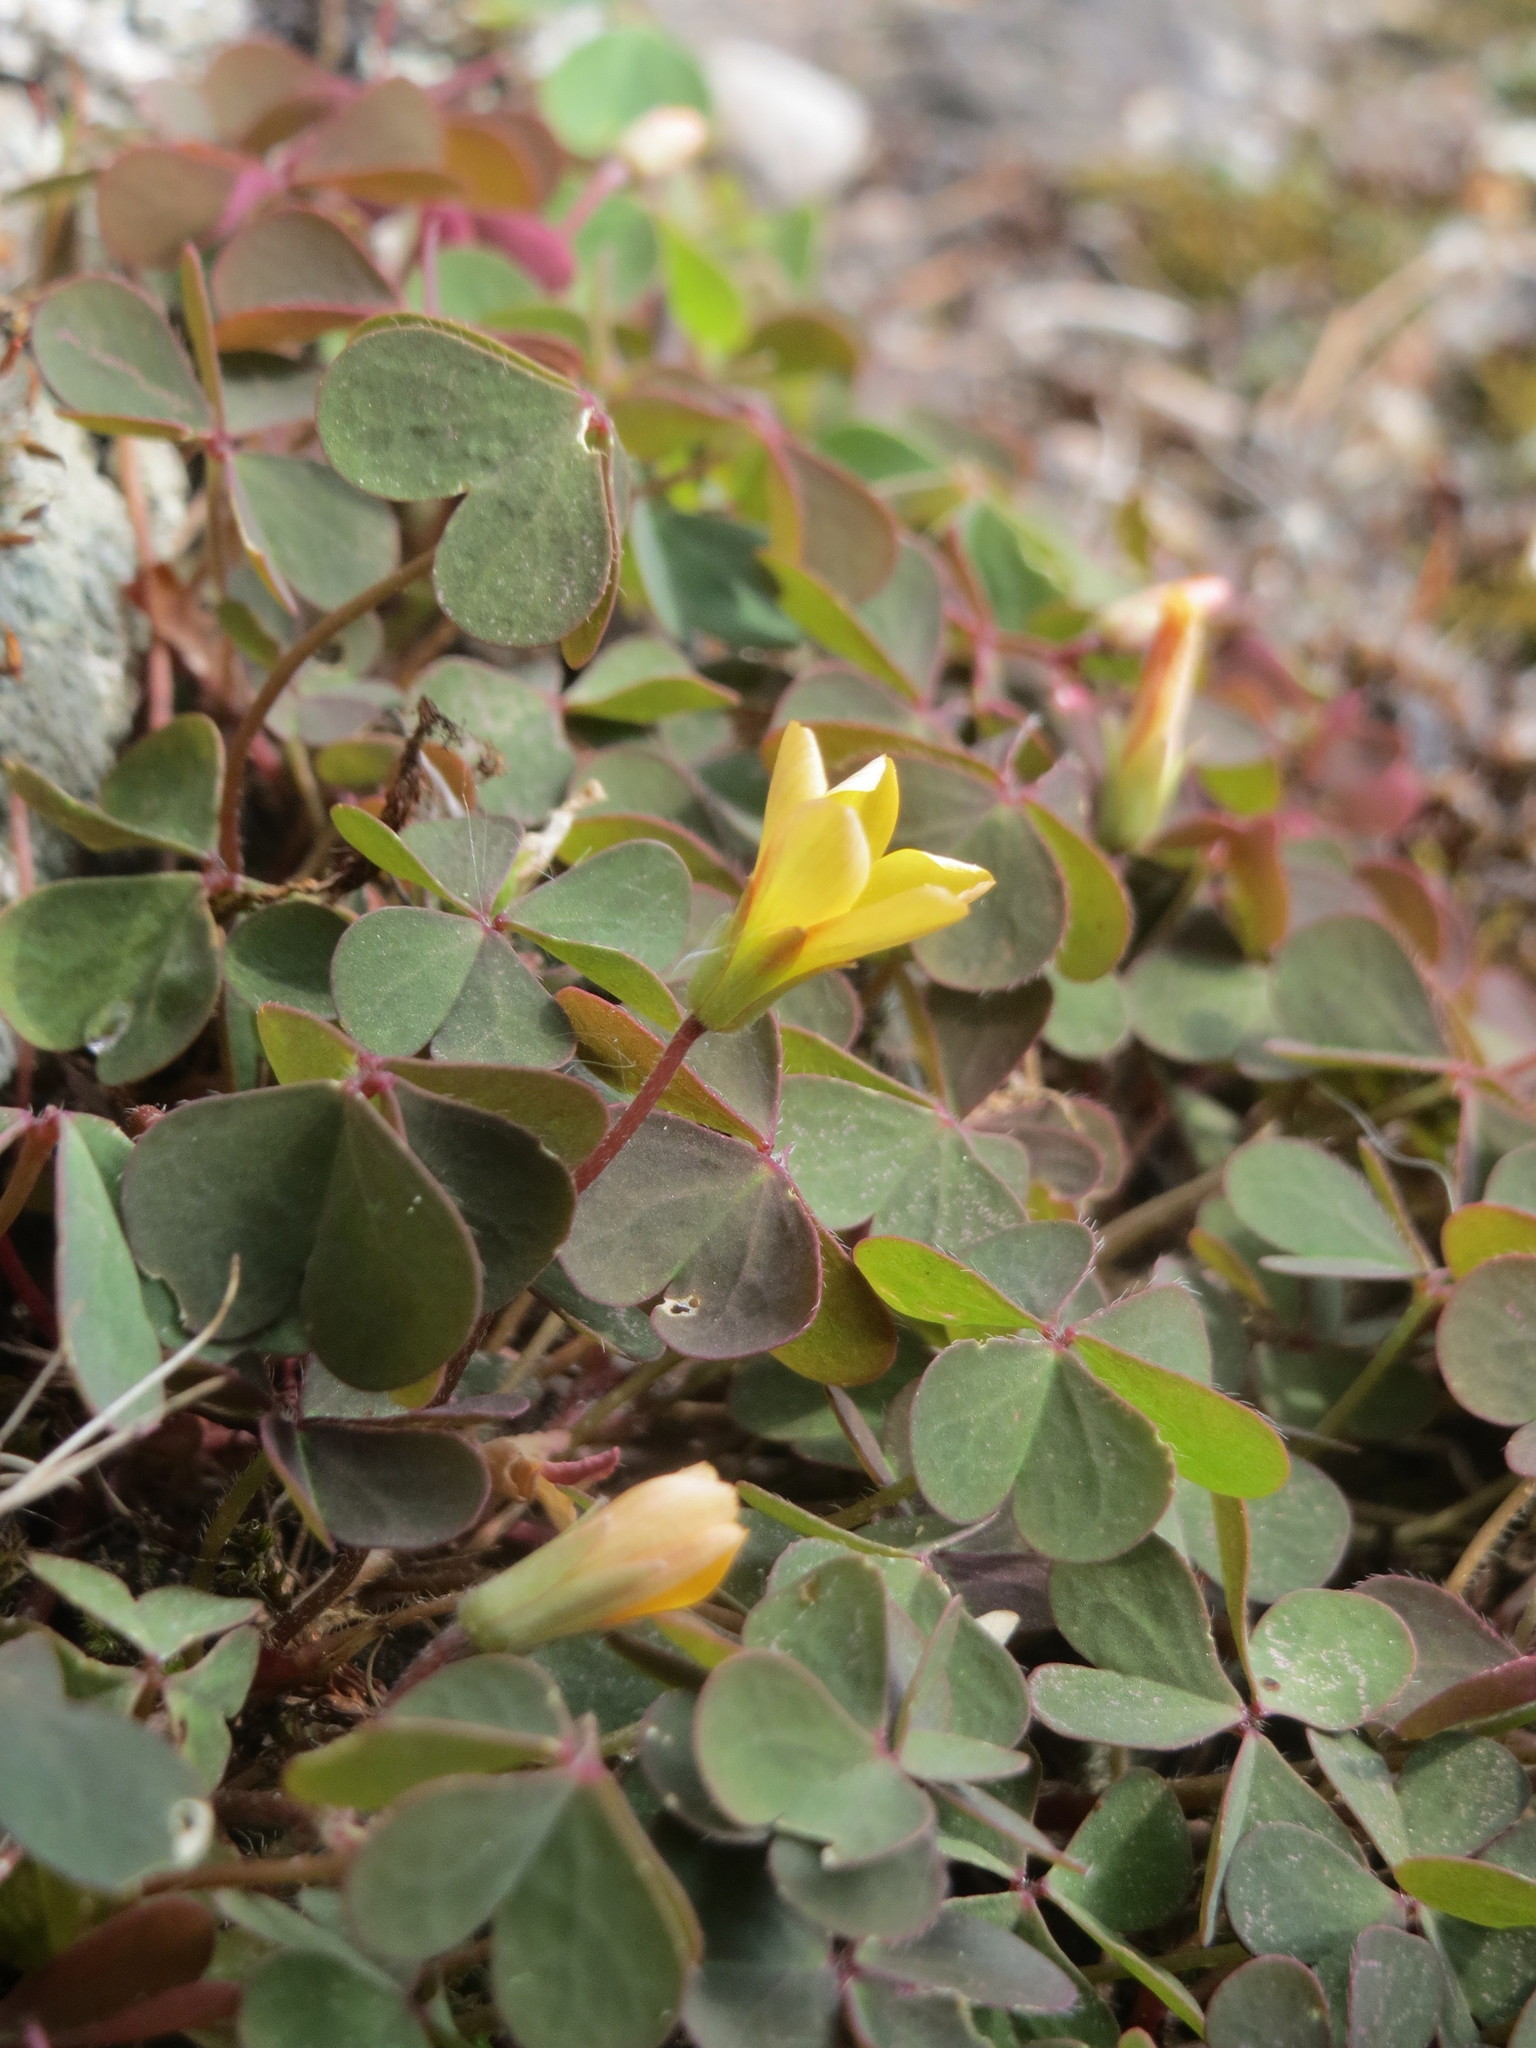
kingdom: Plantae
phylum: Tracheophyta
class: Magnoliopsida
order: Oxalidales
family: Oxalidaceae
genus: Oxalis
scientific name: Oxalis corniculata
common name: Procumbent yellow-sorrel
